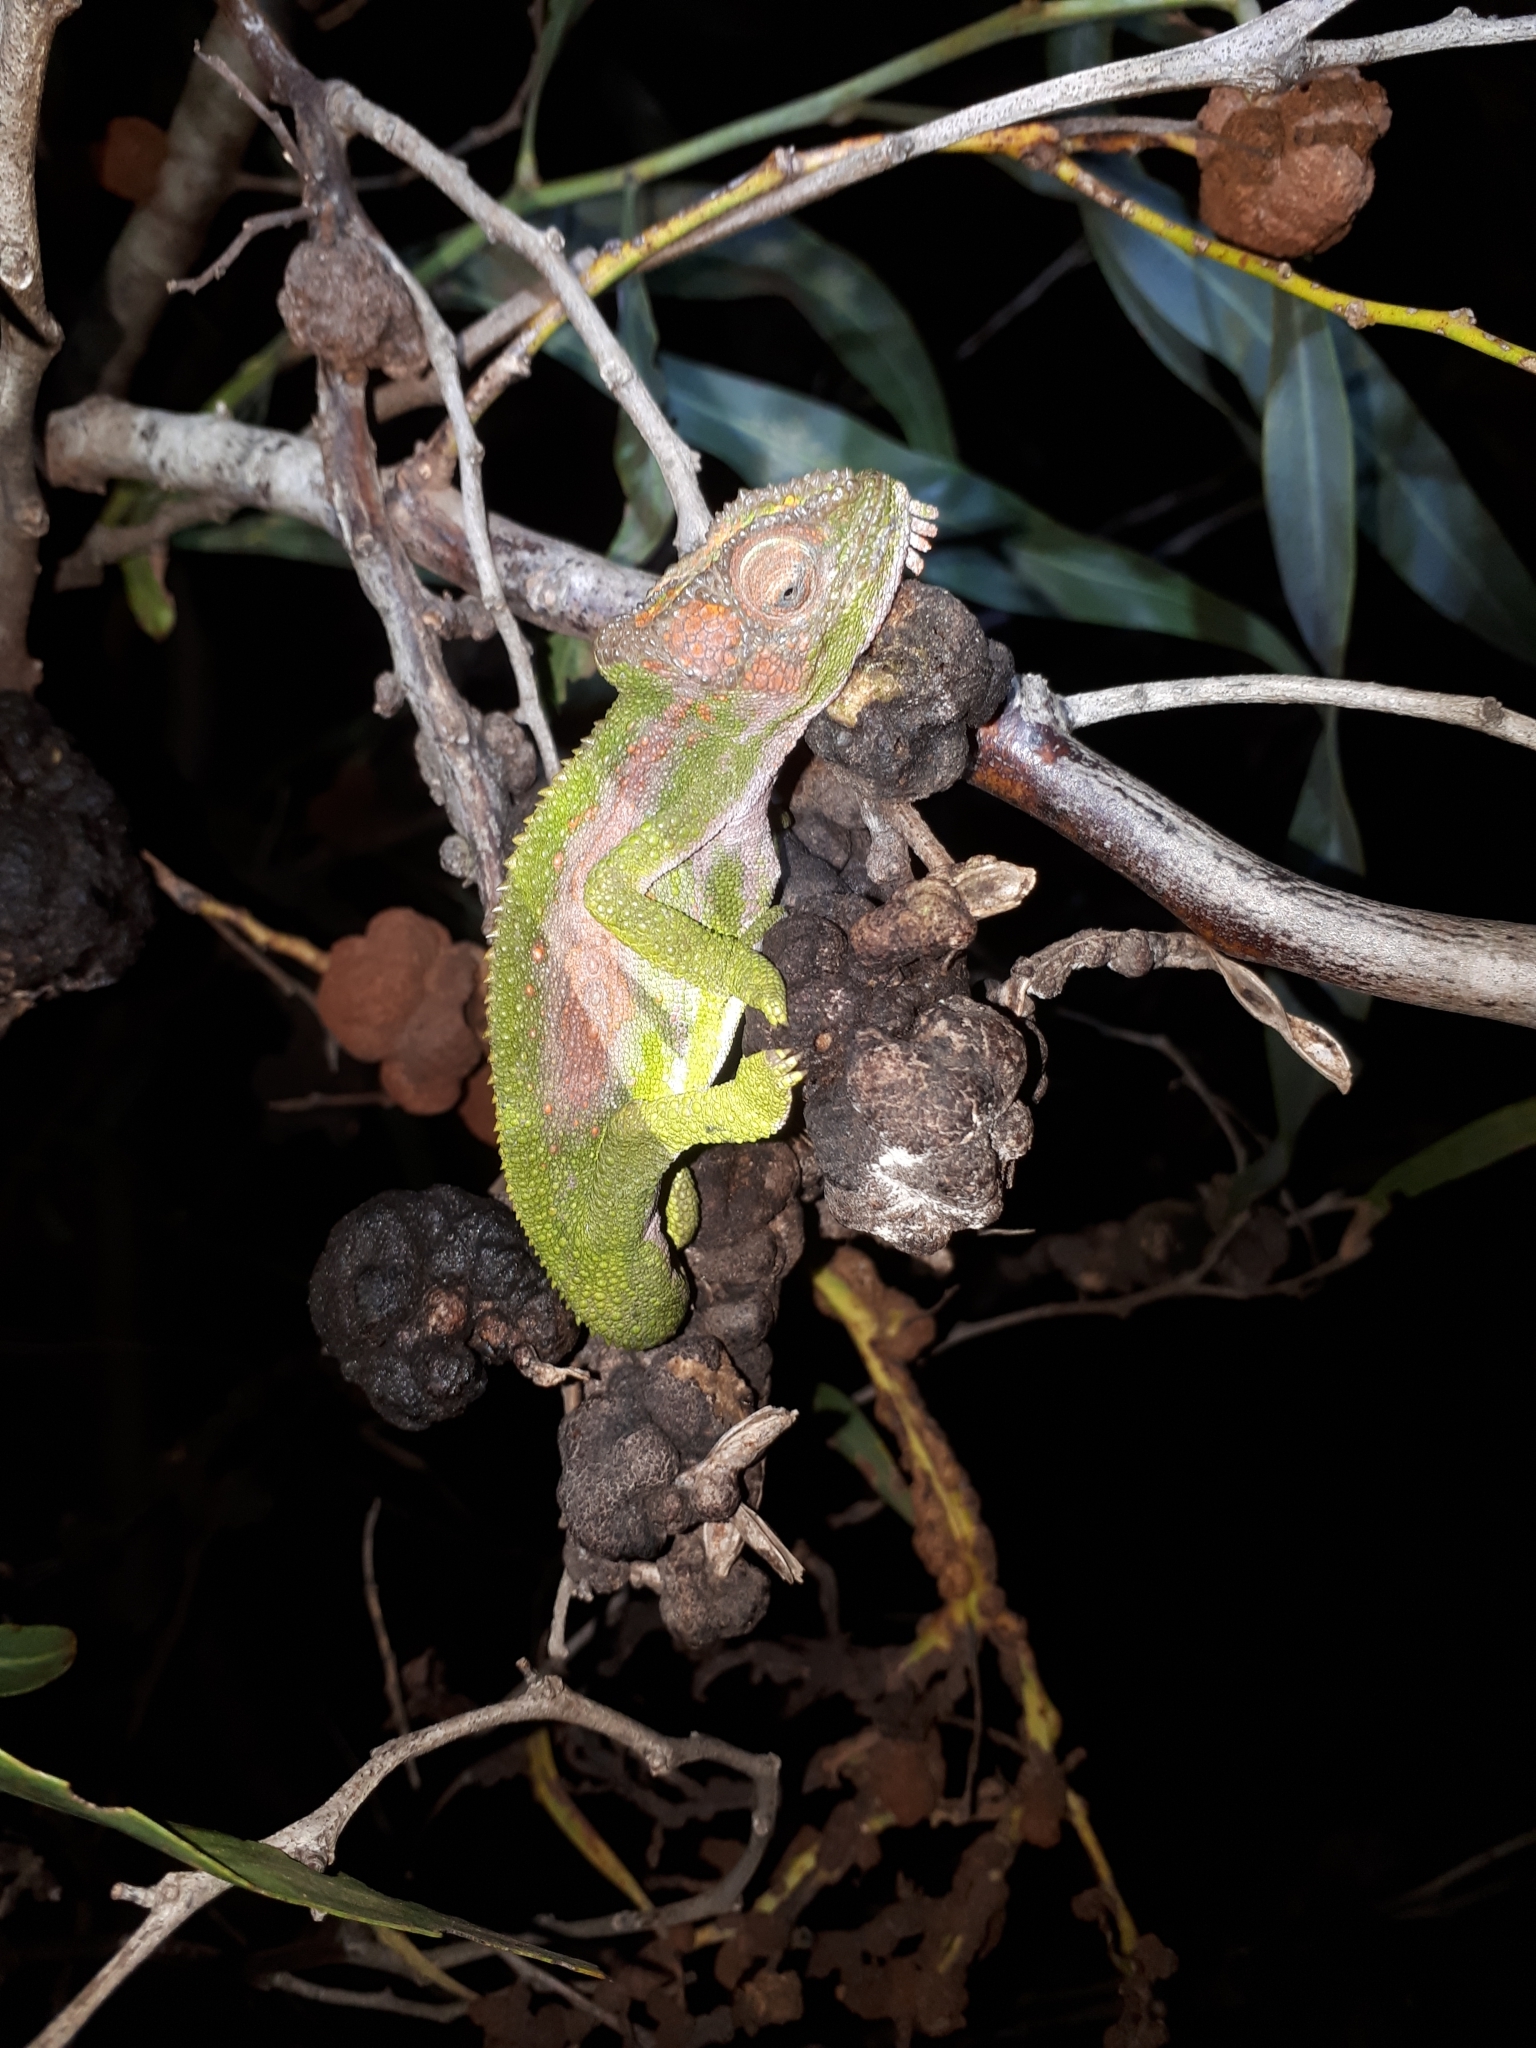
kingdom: Animalia
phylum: Chordata
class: Squamata
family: Chamaeleonidae
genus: Bradypodion
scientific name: Bradypodion pumilum
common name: Cape dwarf chameleon
